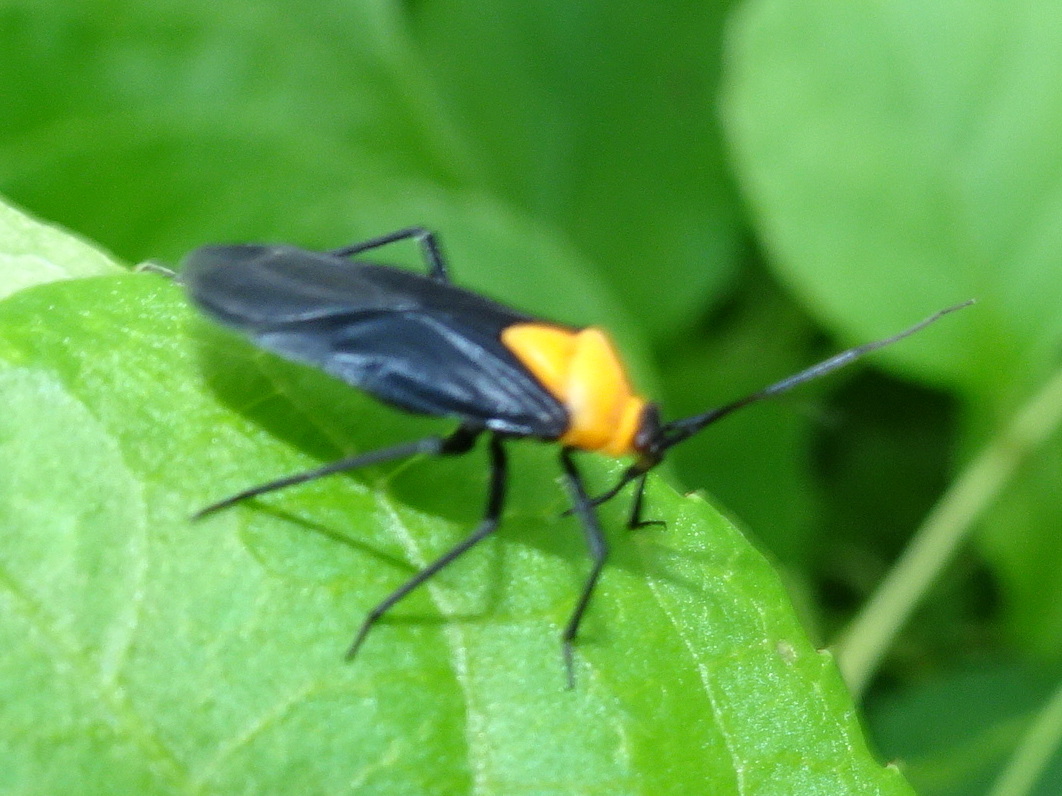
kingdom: Animalia
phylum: Arthropoda
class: Insecta
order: Hemiptera
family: Miridae
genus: Prepops
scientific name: Prepops insitivus
